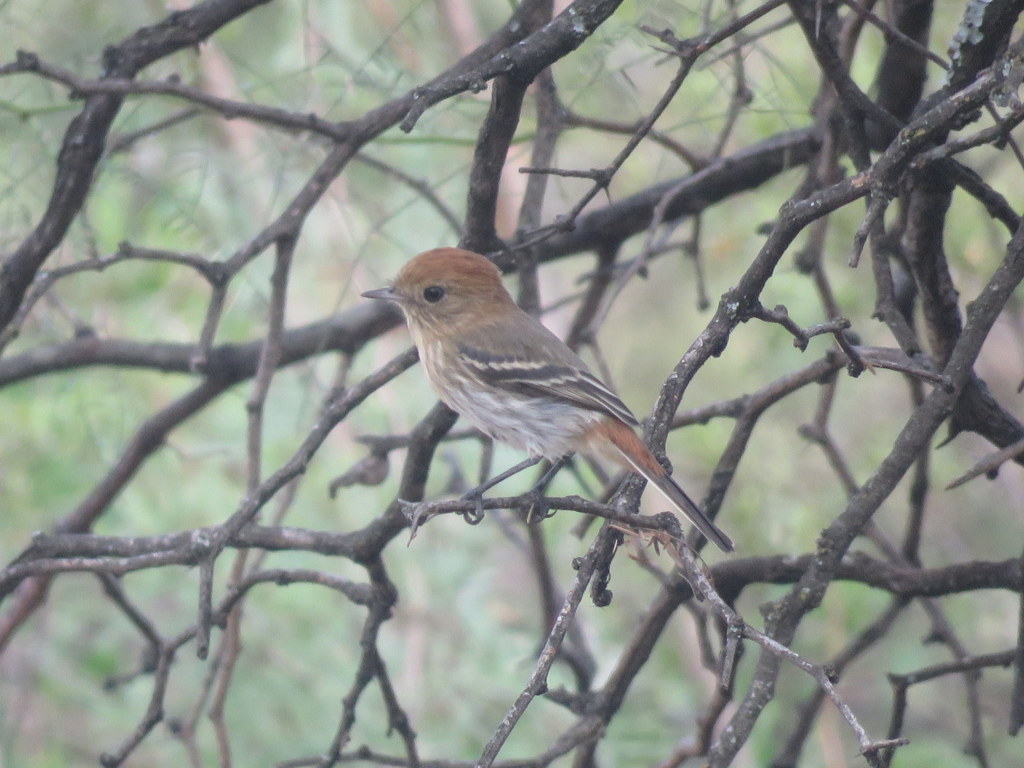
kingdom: Animalia
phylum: Chordata
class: Aves
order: Passeriformes
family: Tyrannidae
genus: Knipolegus
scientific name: Knipolegus striaticeps
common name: Cinereous tyrant
